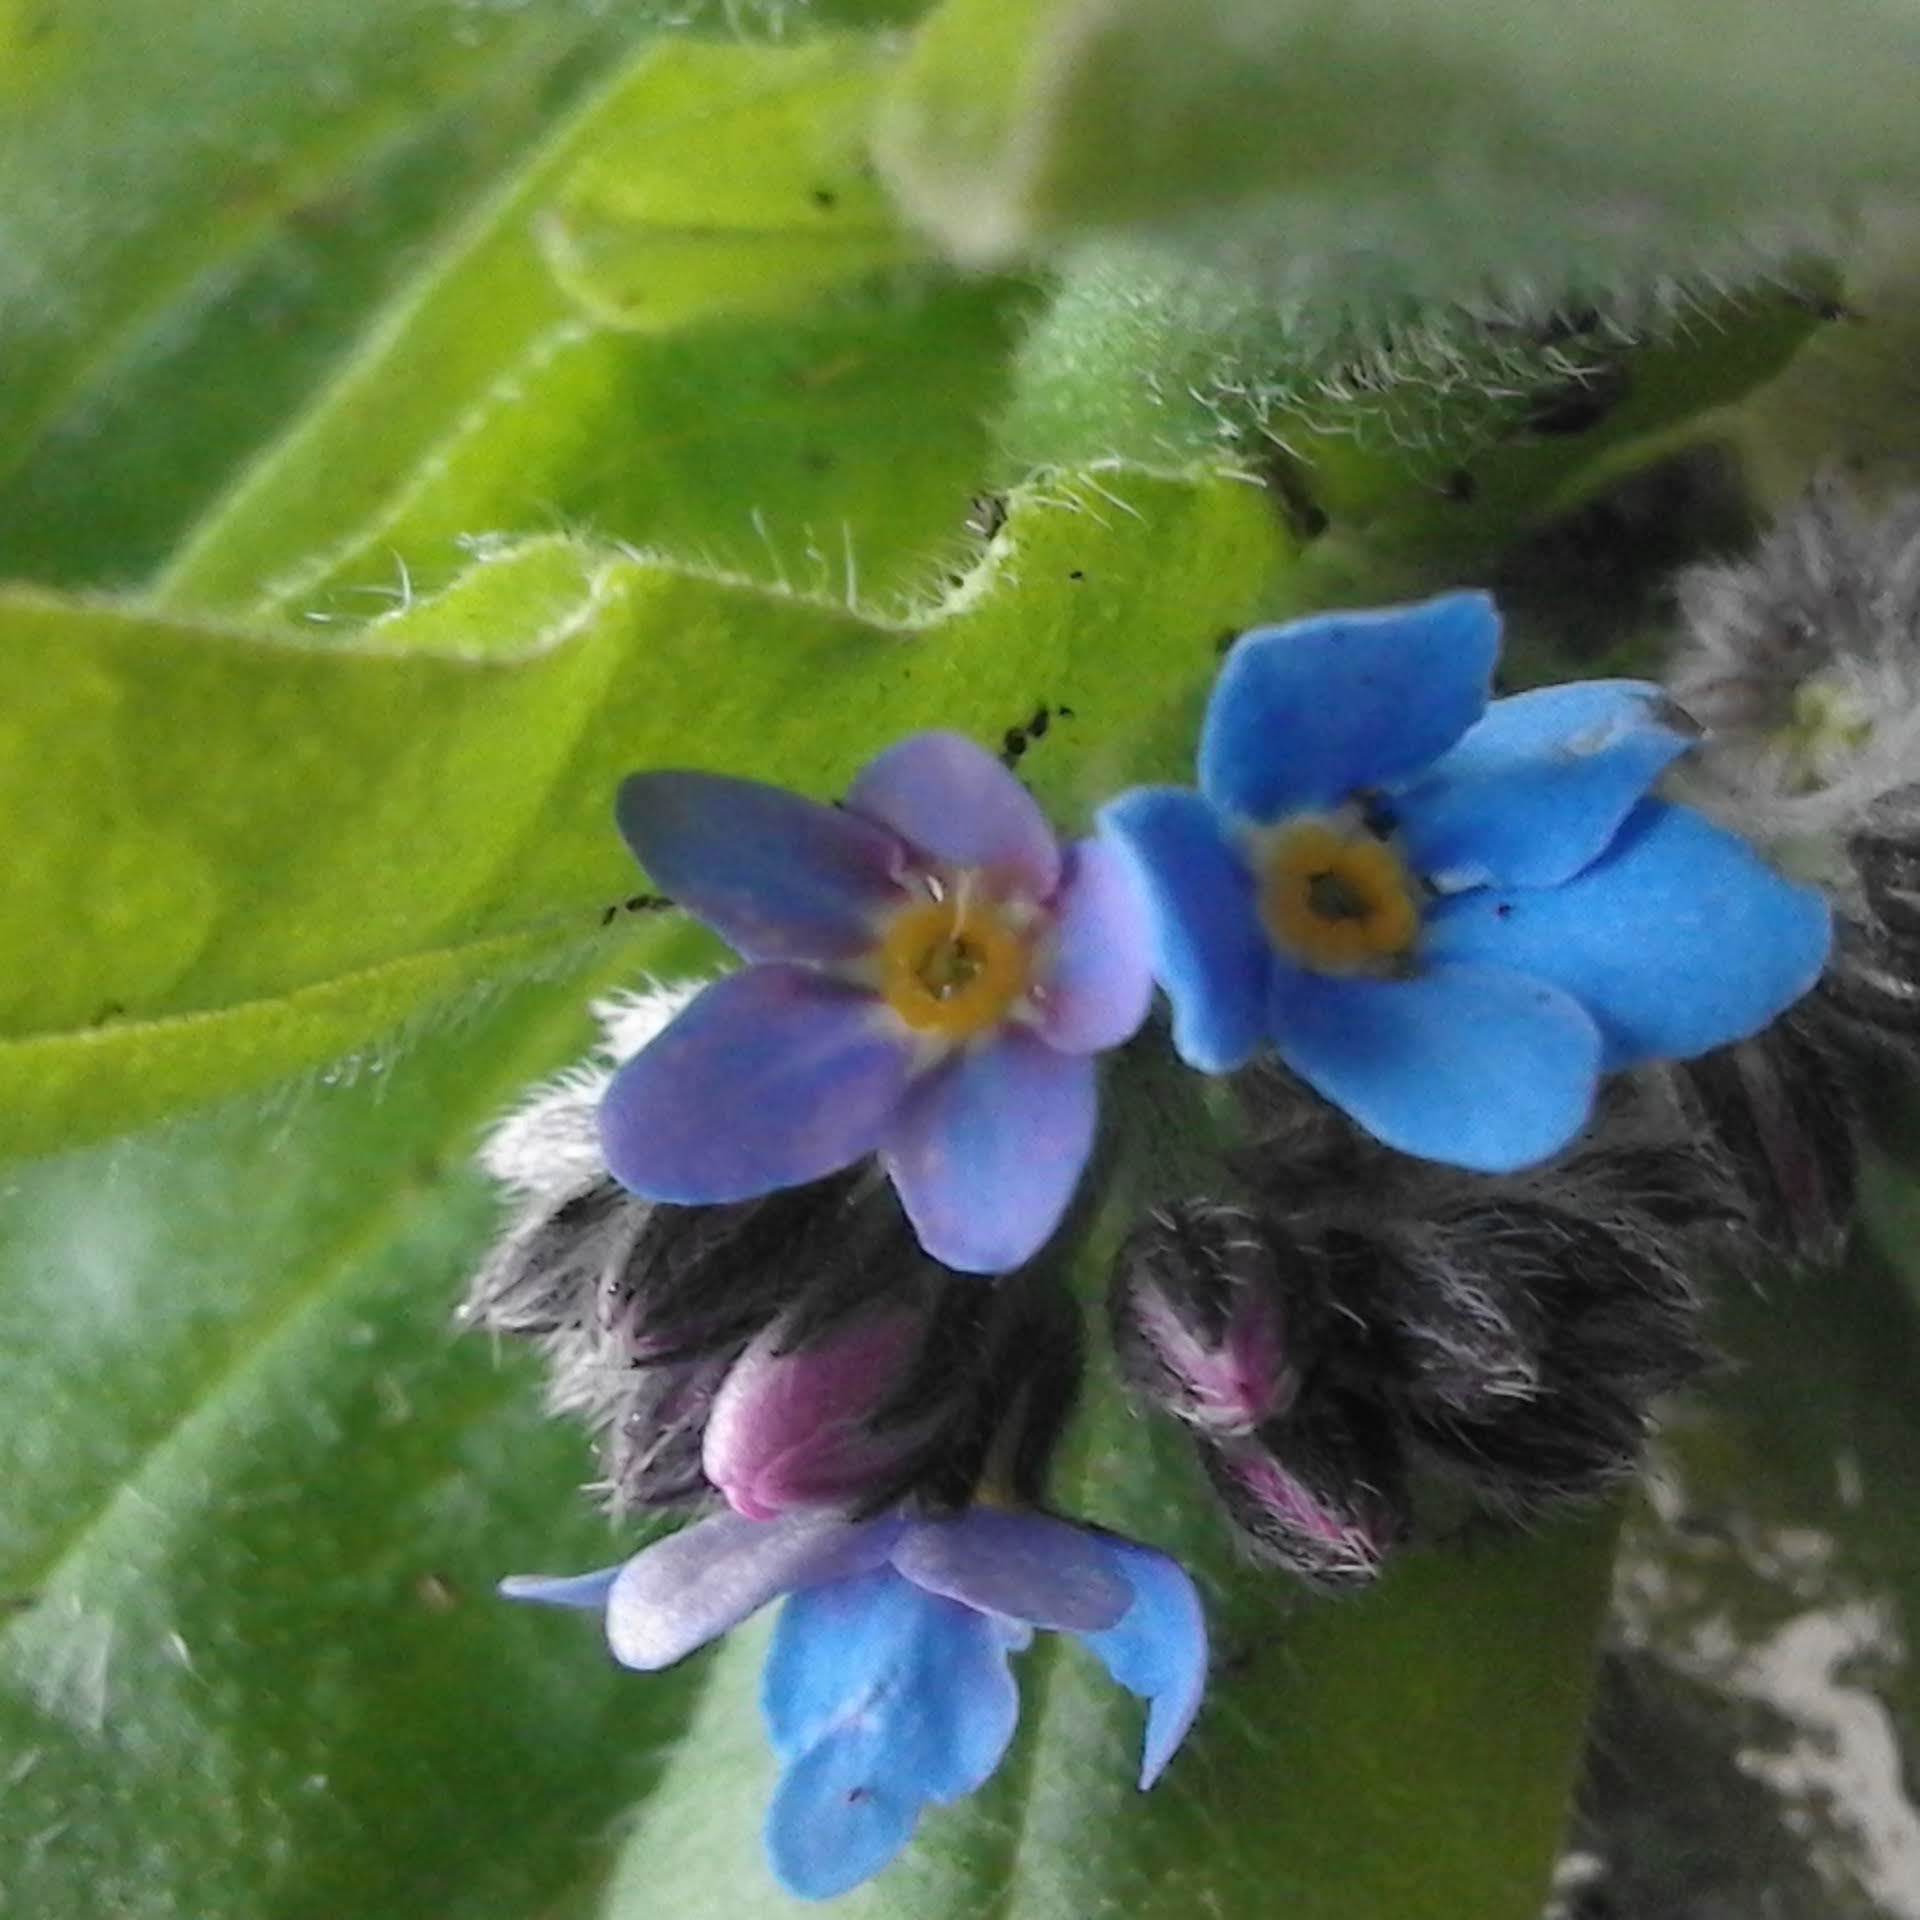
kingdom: Plantae
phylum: Tracheophyta
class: Magnoliopsida
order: Boraginales
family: Boraginaceae
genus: Myosotis
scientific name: Myosotis sylvatica
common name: Wood forget-me-not
